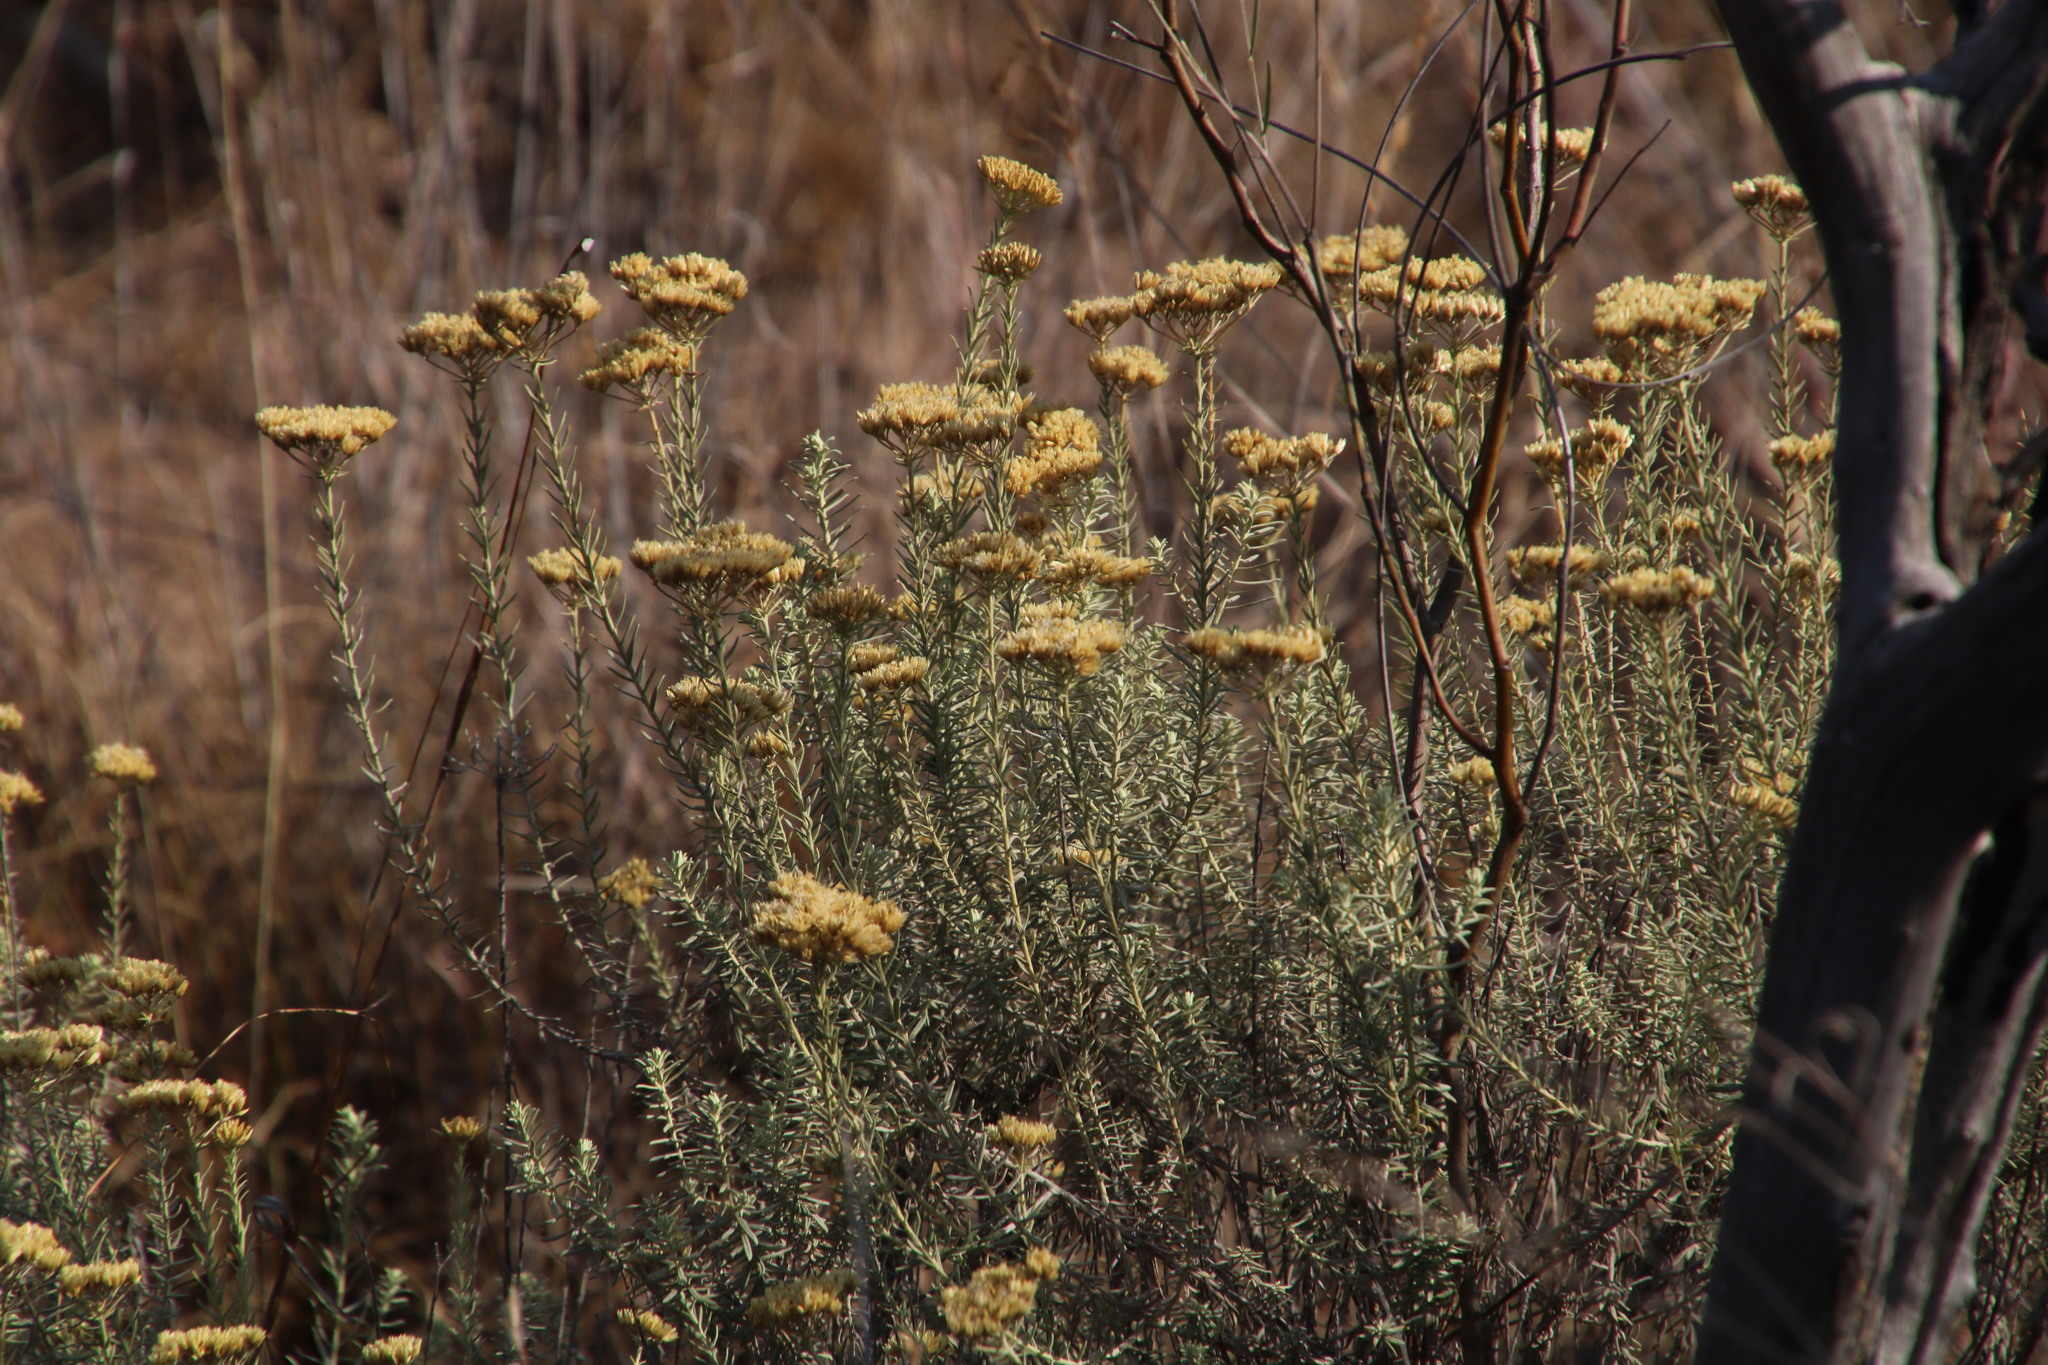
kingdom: Plantae
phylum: Tracheophyta
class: Magnoliopsida
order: Asterales
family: Asteraceae
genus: Helichrysum
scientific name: Helichrysum kraussii
